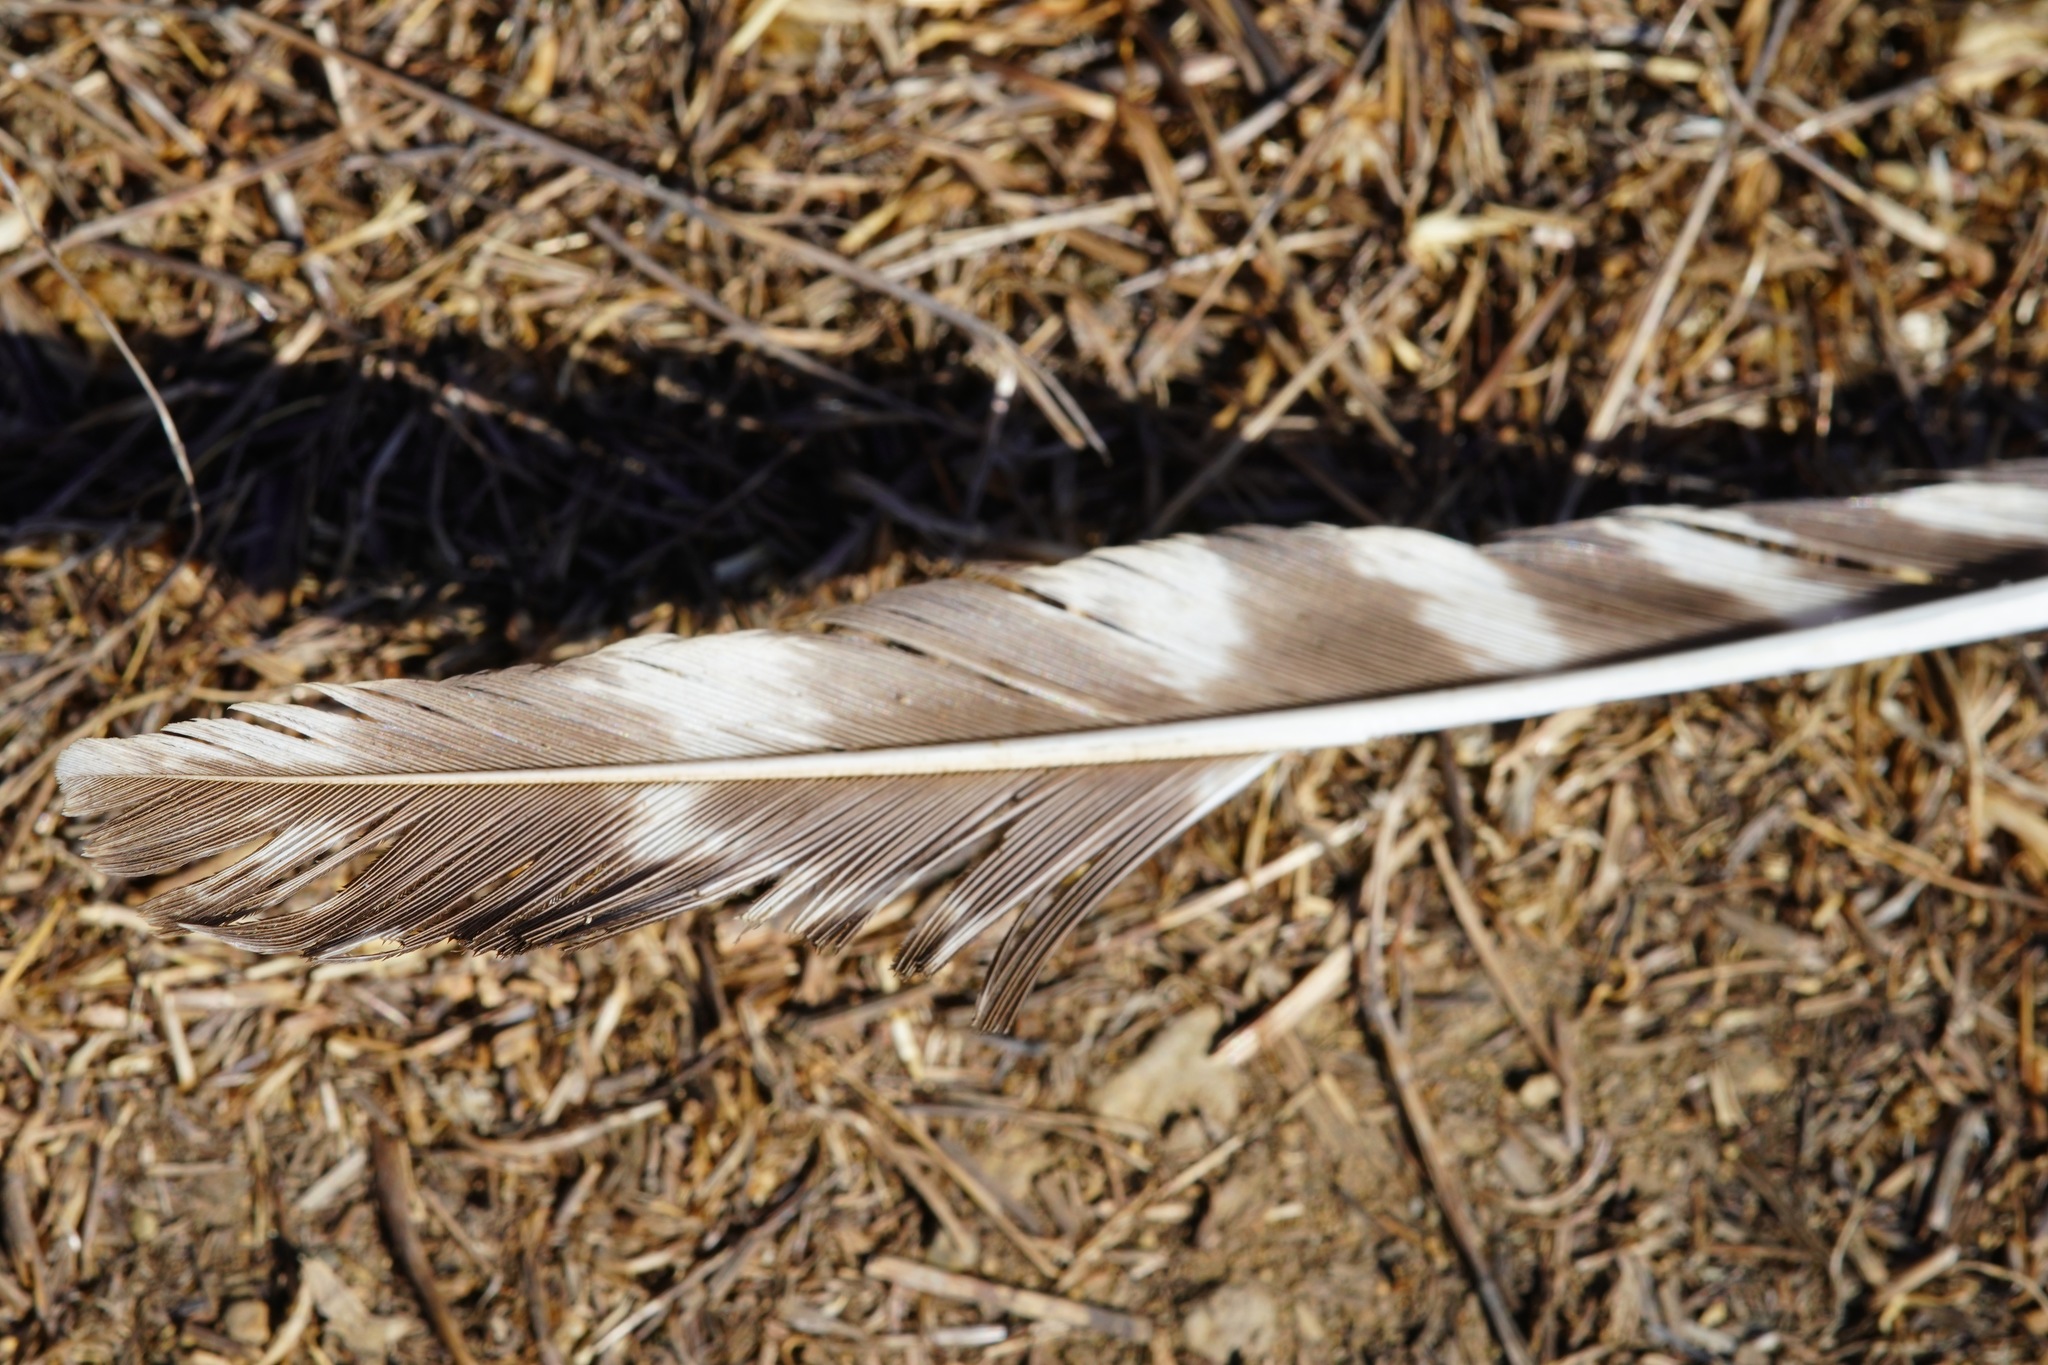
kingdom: Animalia
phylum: Chordata
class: Aves
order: Galliformes
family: Phasianidae
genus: Meleagris
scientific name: Meleagris gallopavo
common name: Wild turkey
